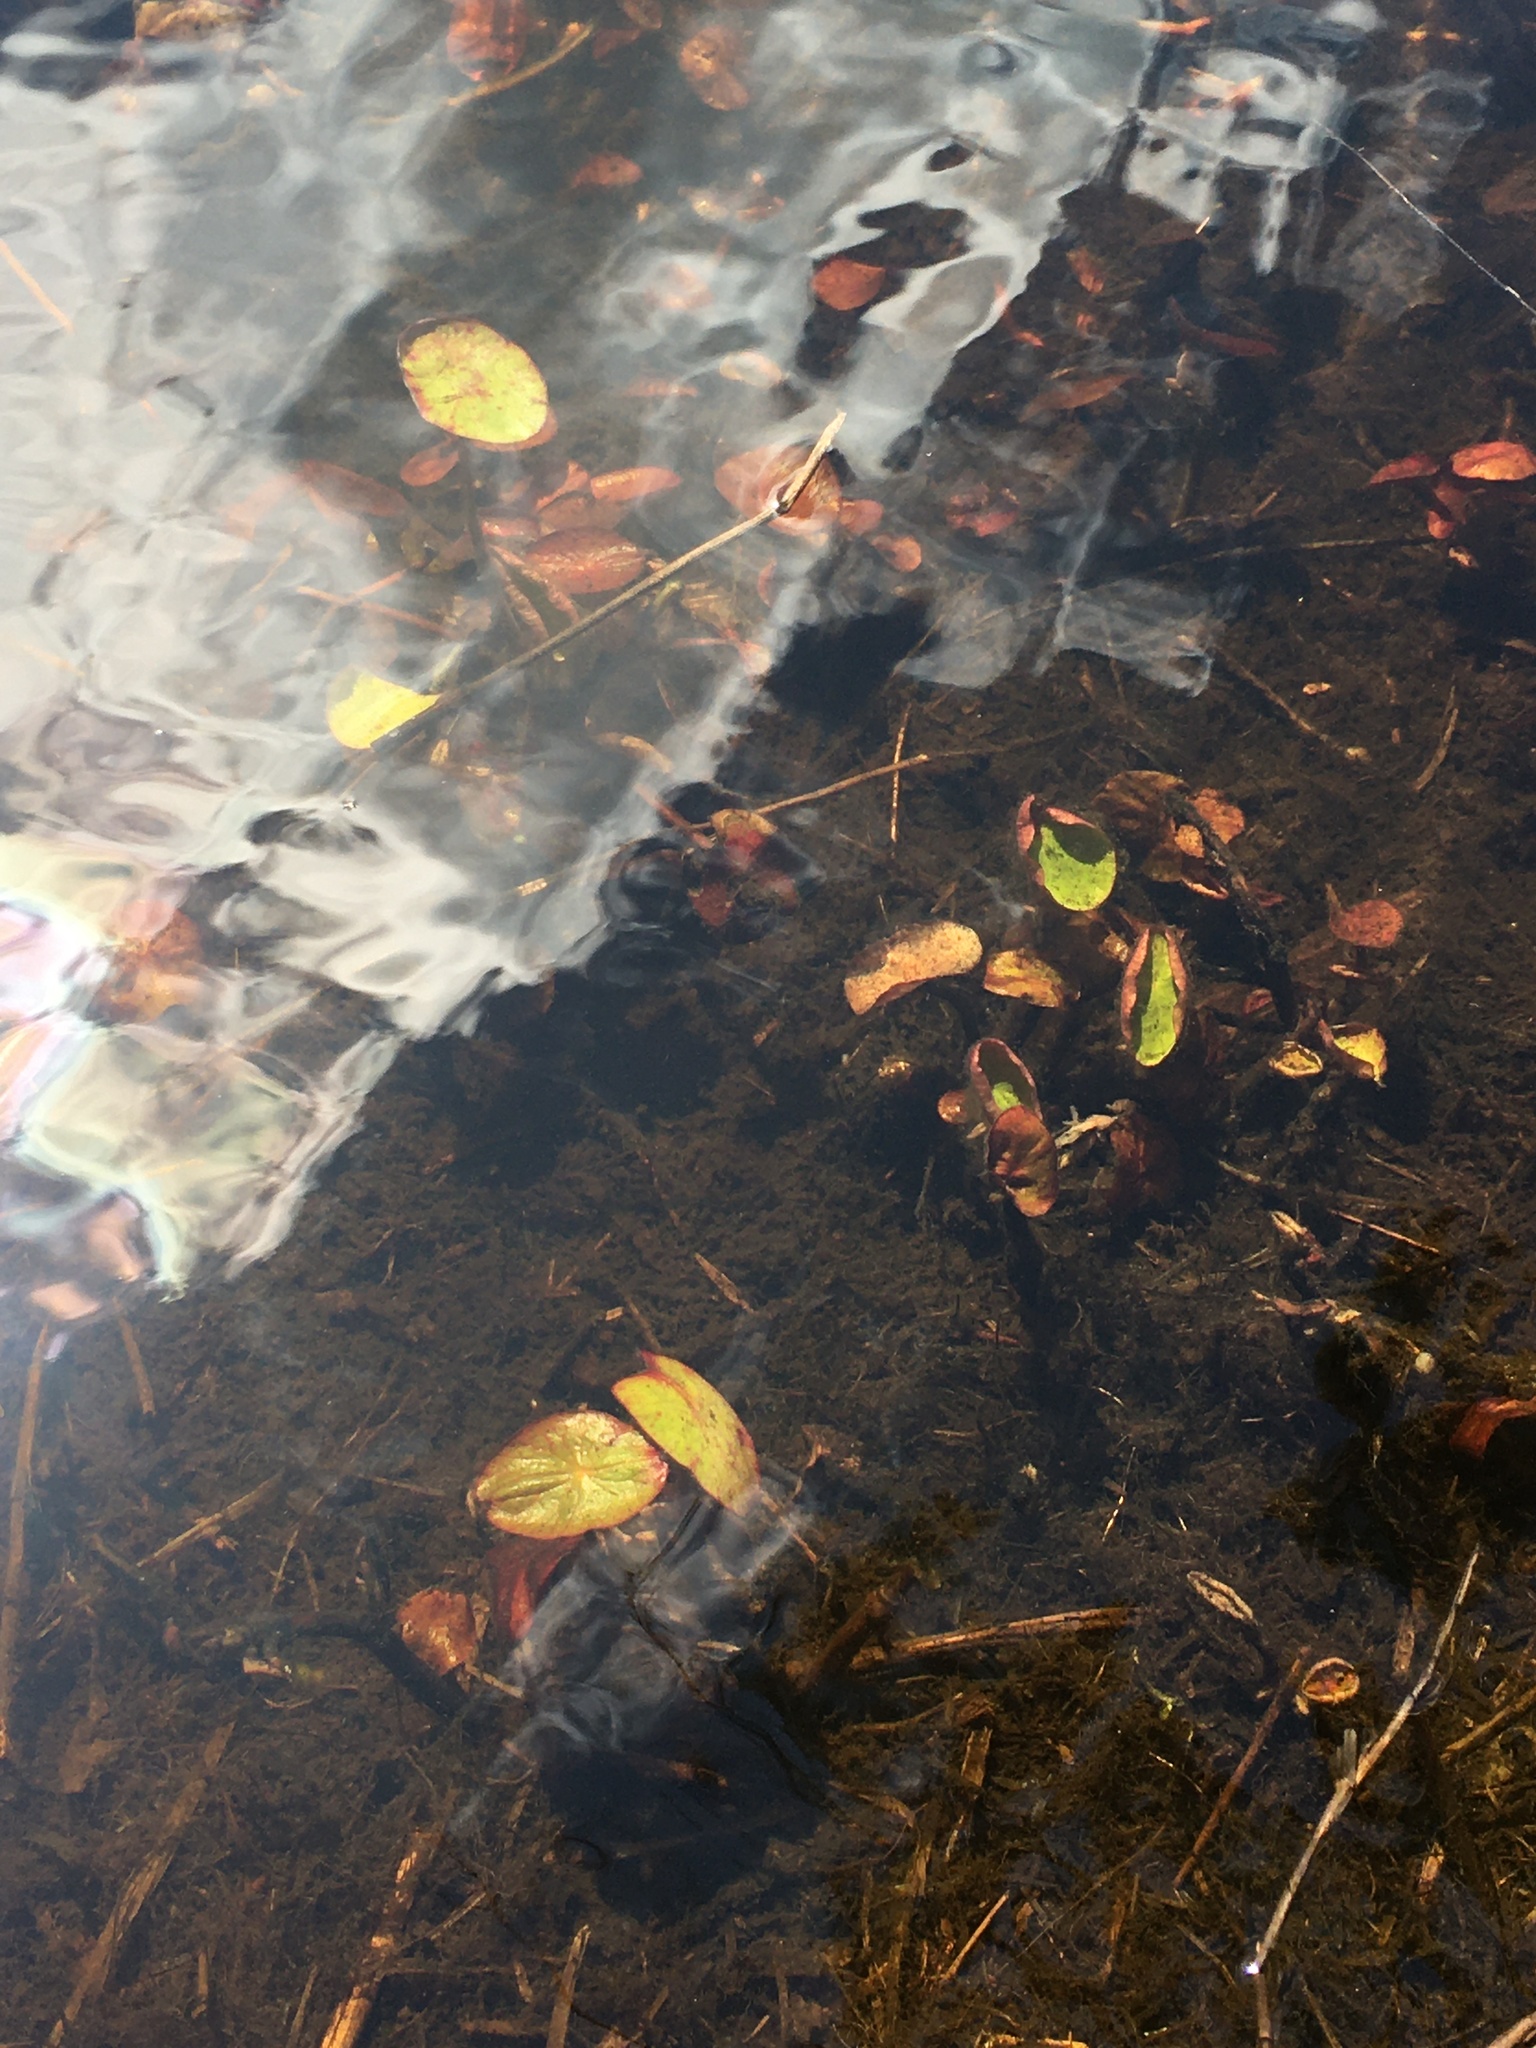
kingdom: Plantae
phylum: Tracheophyta
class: Magnoliopsida
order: Nymphaeales
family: Cabombaceae
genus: Brasenia
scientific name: Brasenia schreberi
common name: Water-shield
